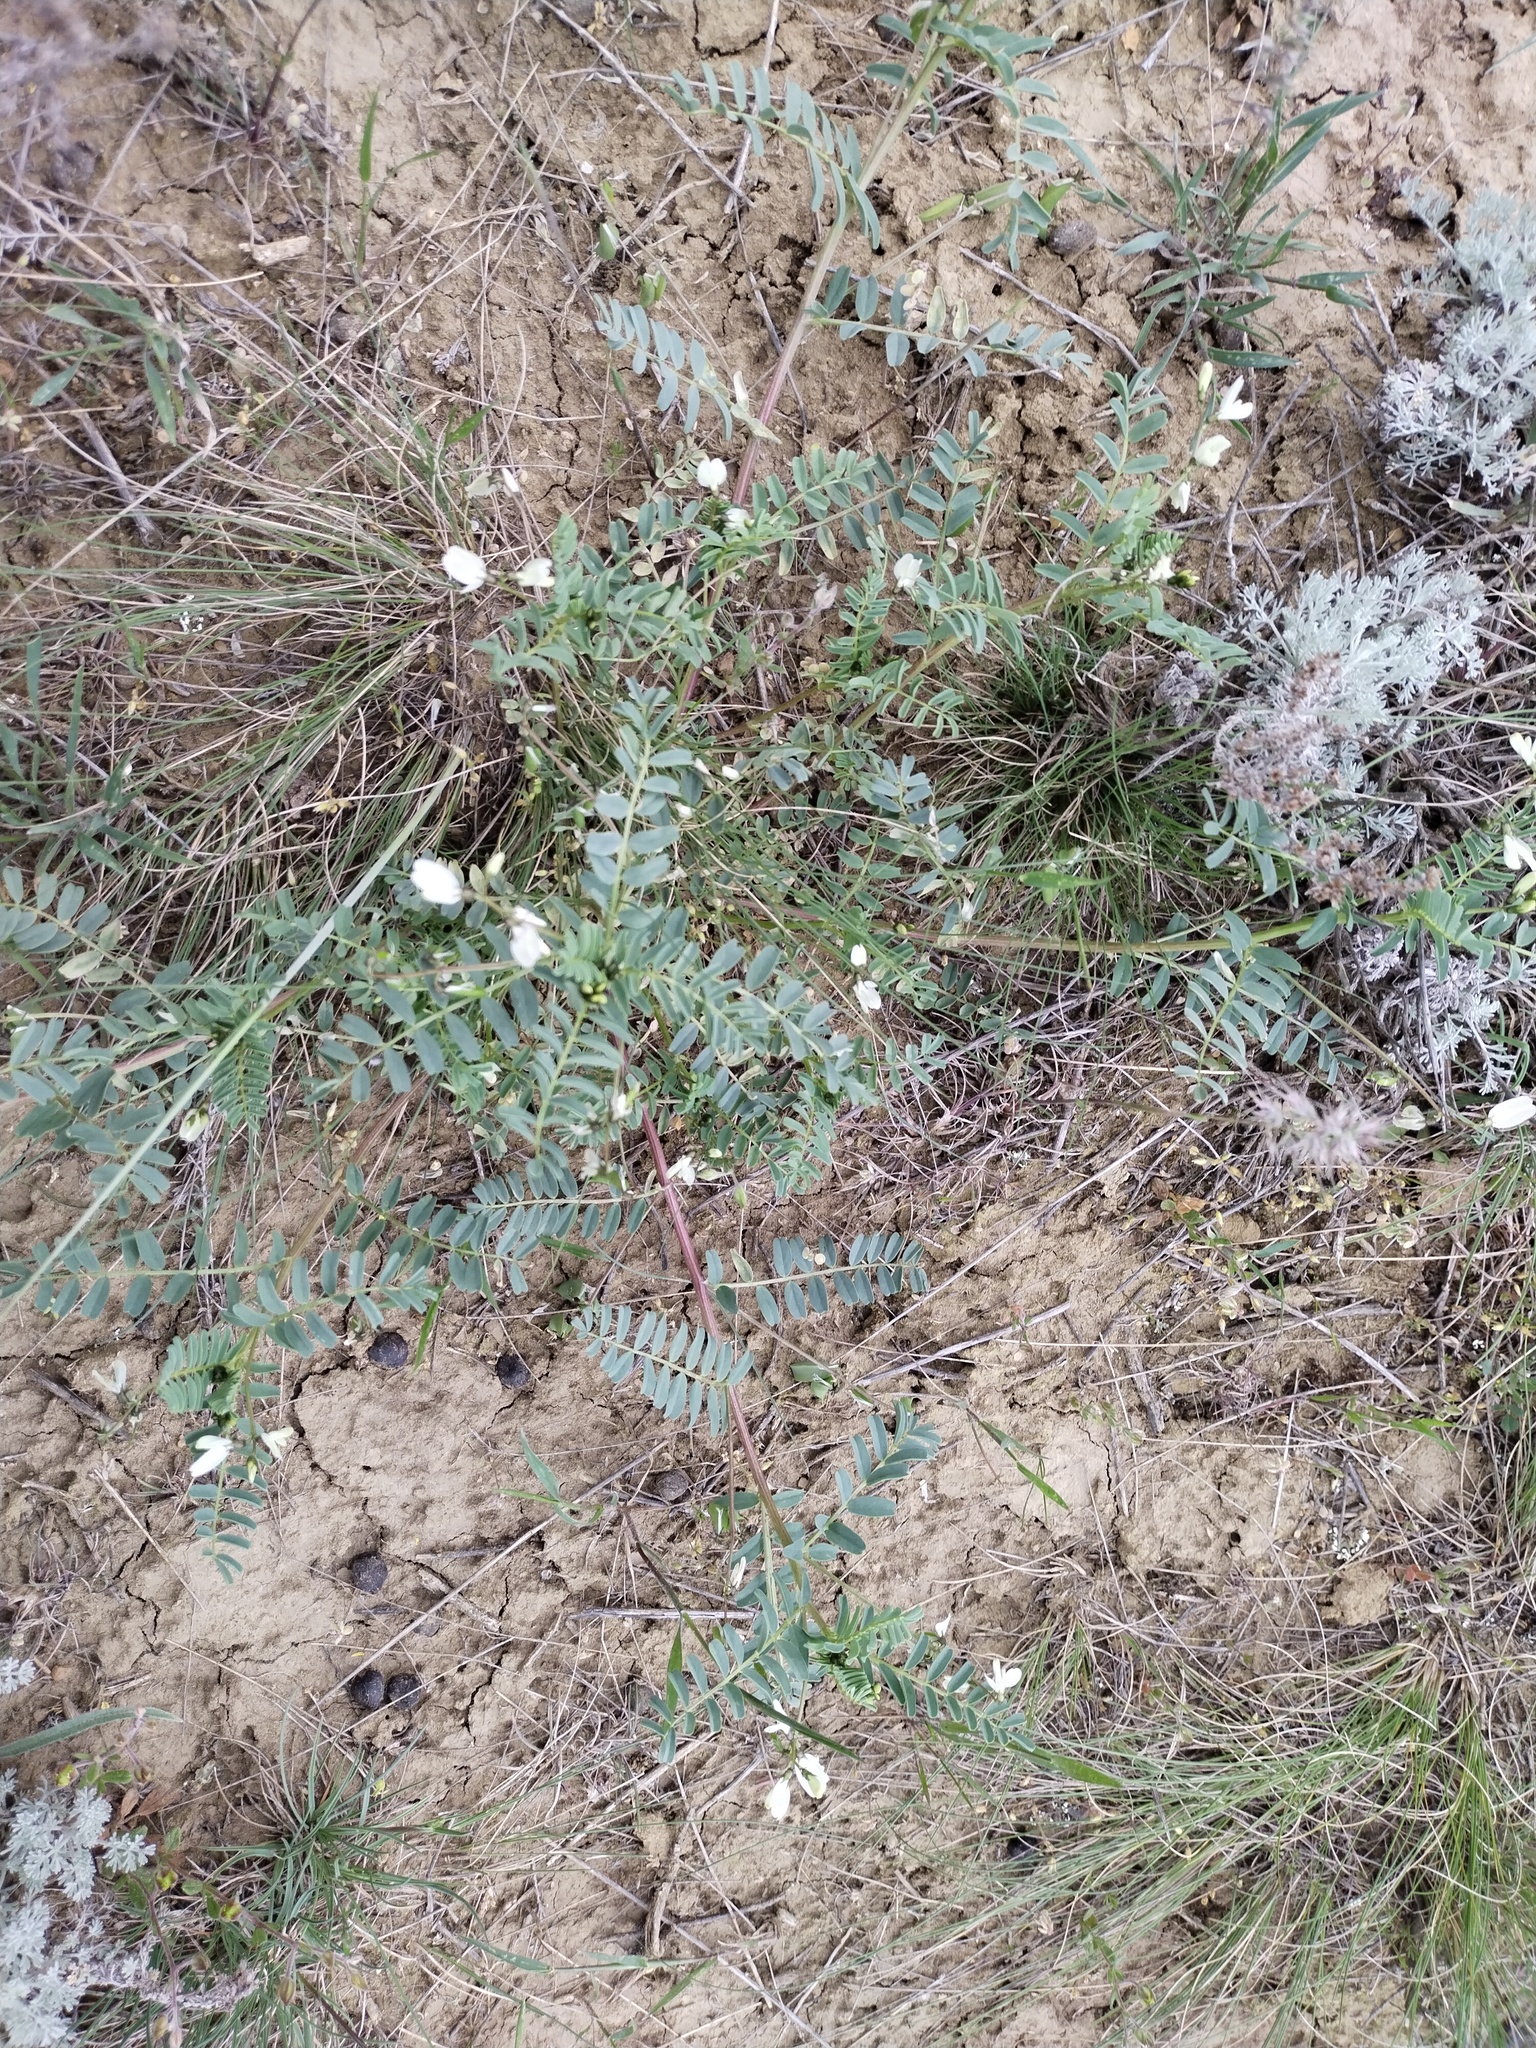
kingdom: Plantae
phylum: Tracheophyta
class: Magnoliopsida
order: Fabales
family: Fabaceae
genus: Astragalus
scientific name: Astragalus guttatus
